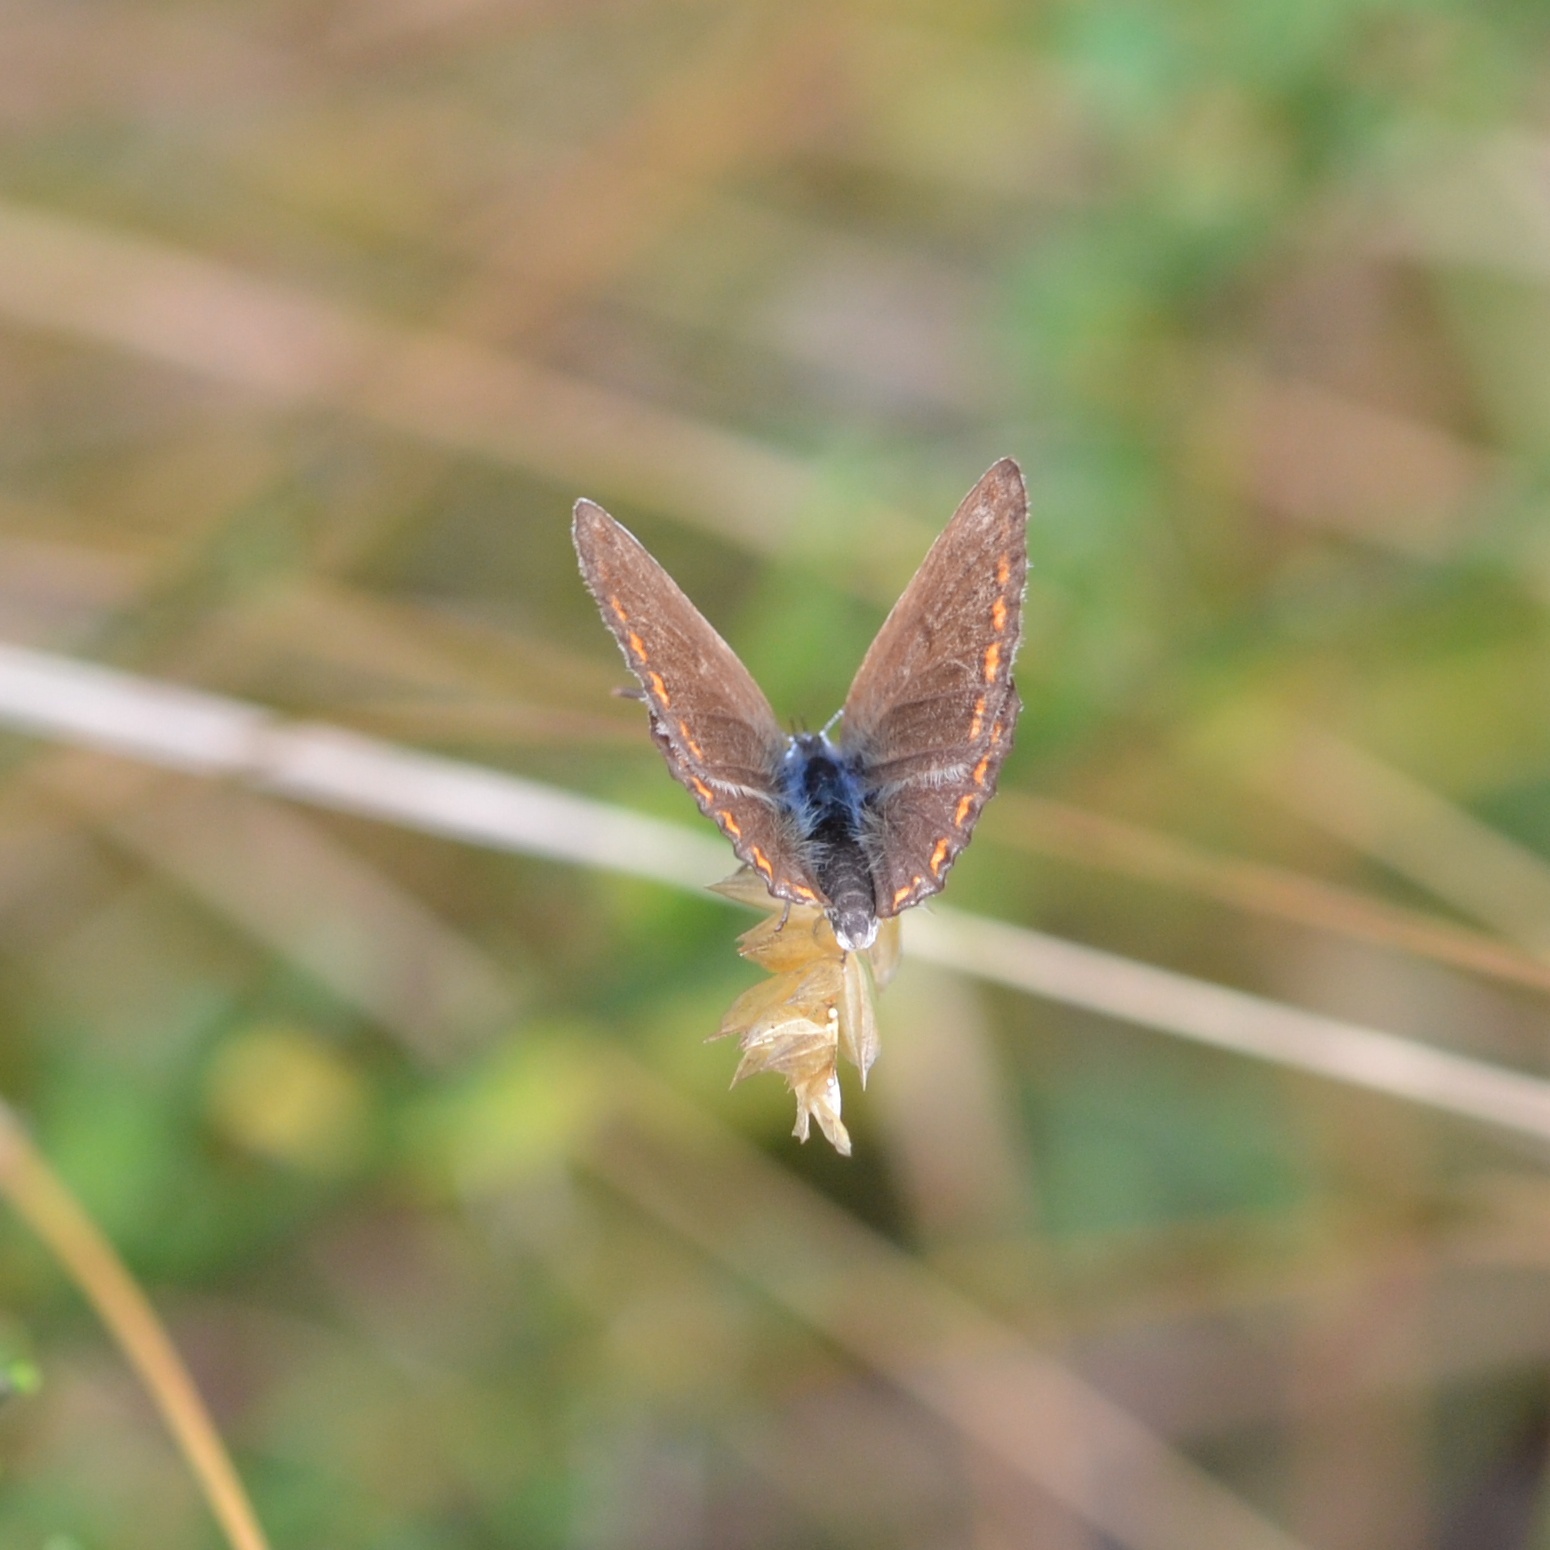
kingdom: Animalia
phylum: Arthropoda
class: Insecta
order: Lepidoptera
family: Lycaenidae
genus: Polyommatus
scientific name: Polyommatus icarus
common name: Common blue
